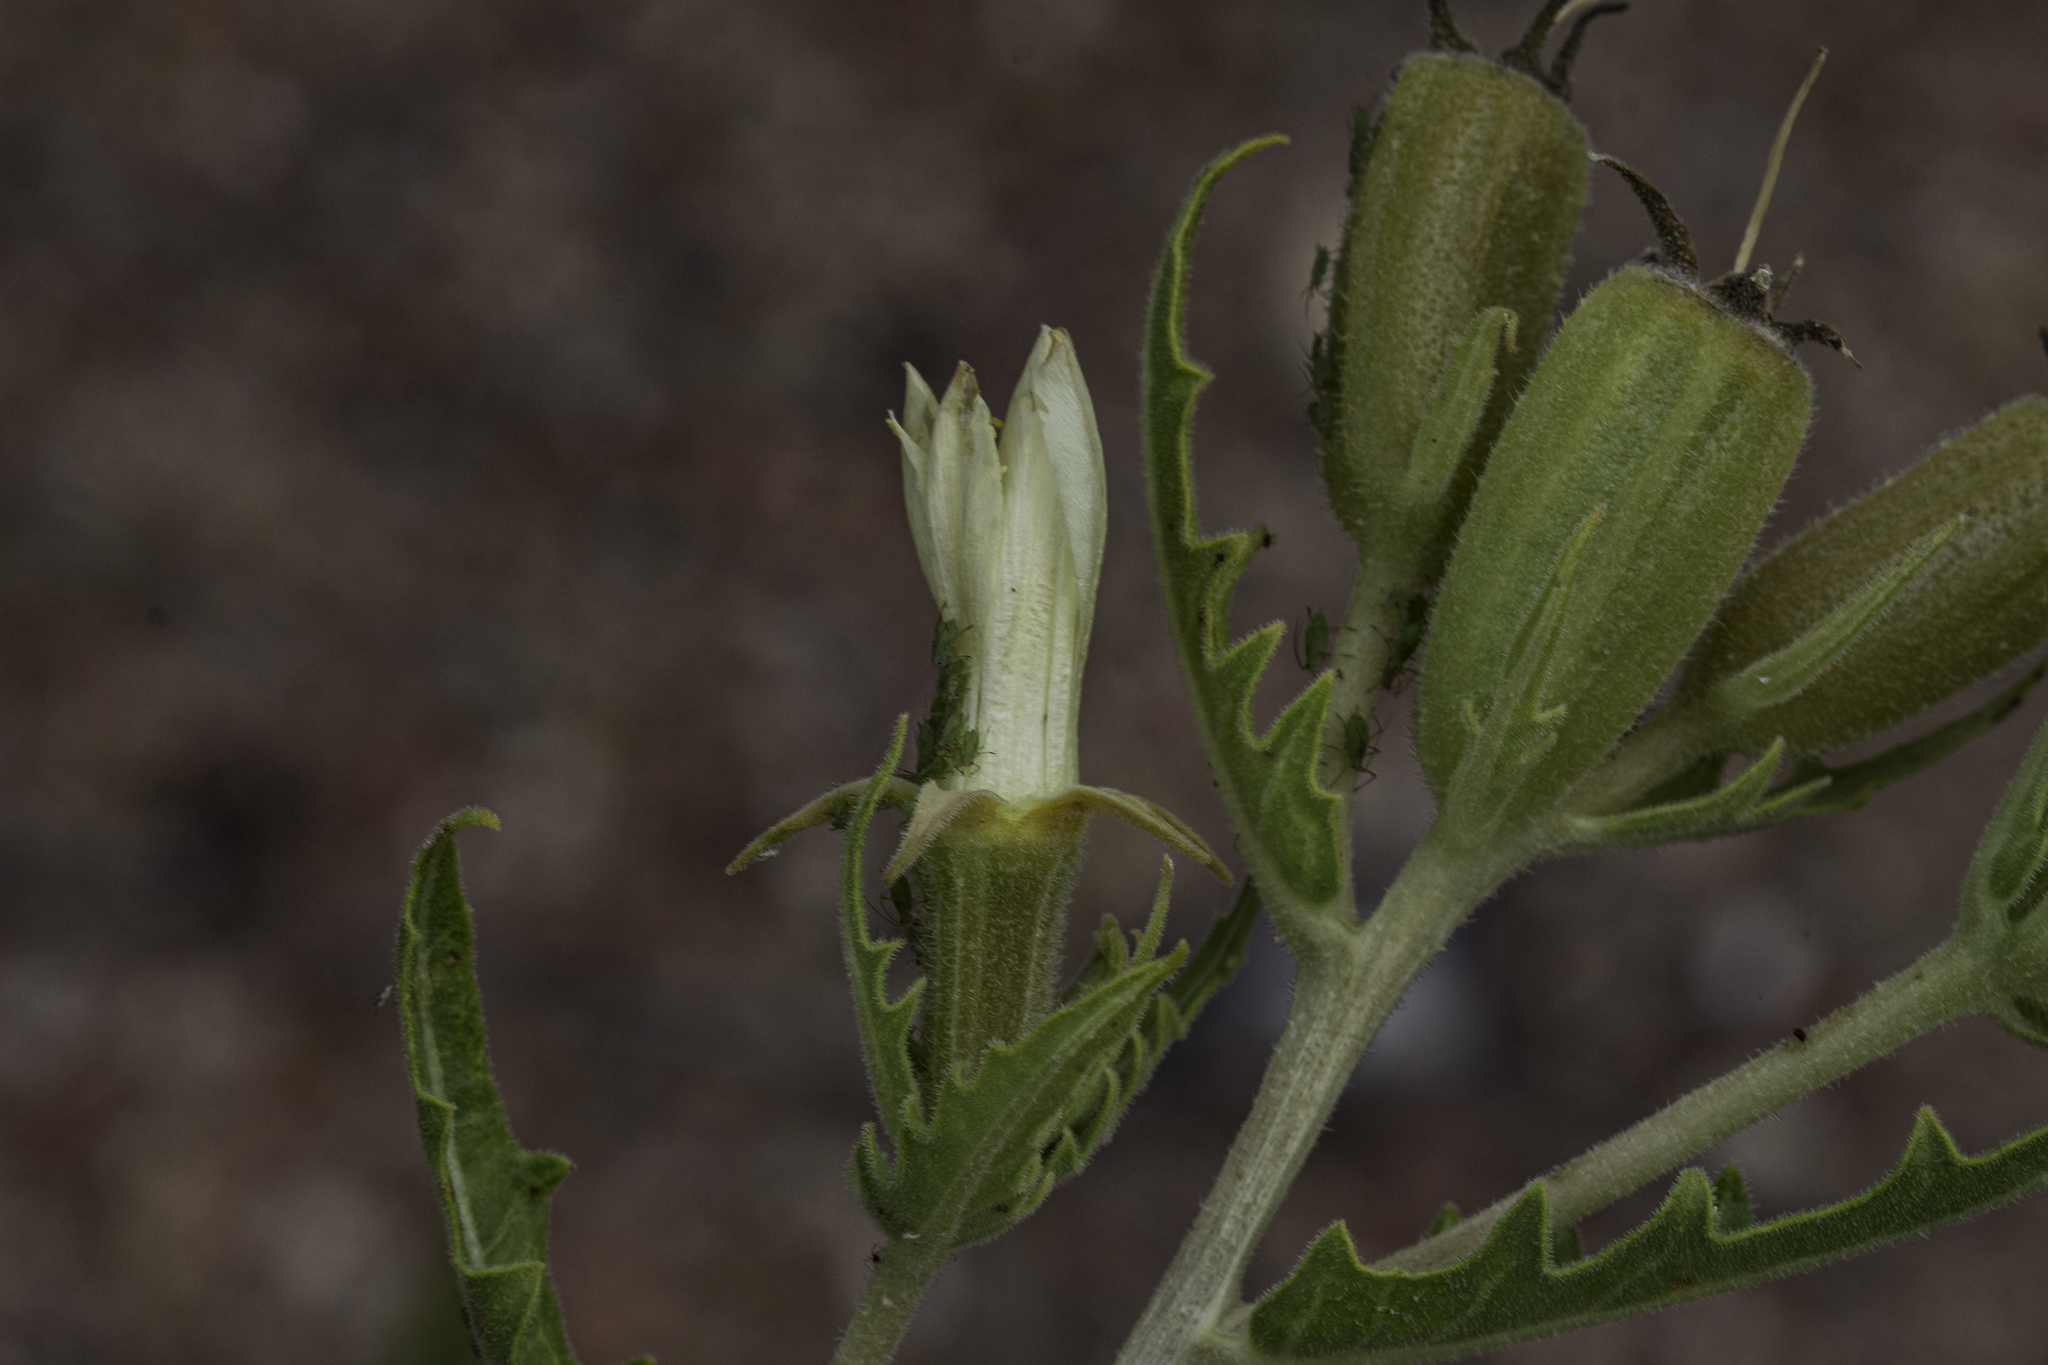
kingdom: Plantae
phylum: Tracheophyta
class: Magnoliopsida
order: Cornales
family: Loasaceae
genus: Mentzelia
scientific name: Mentzelia rusbyi
